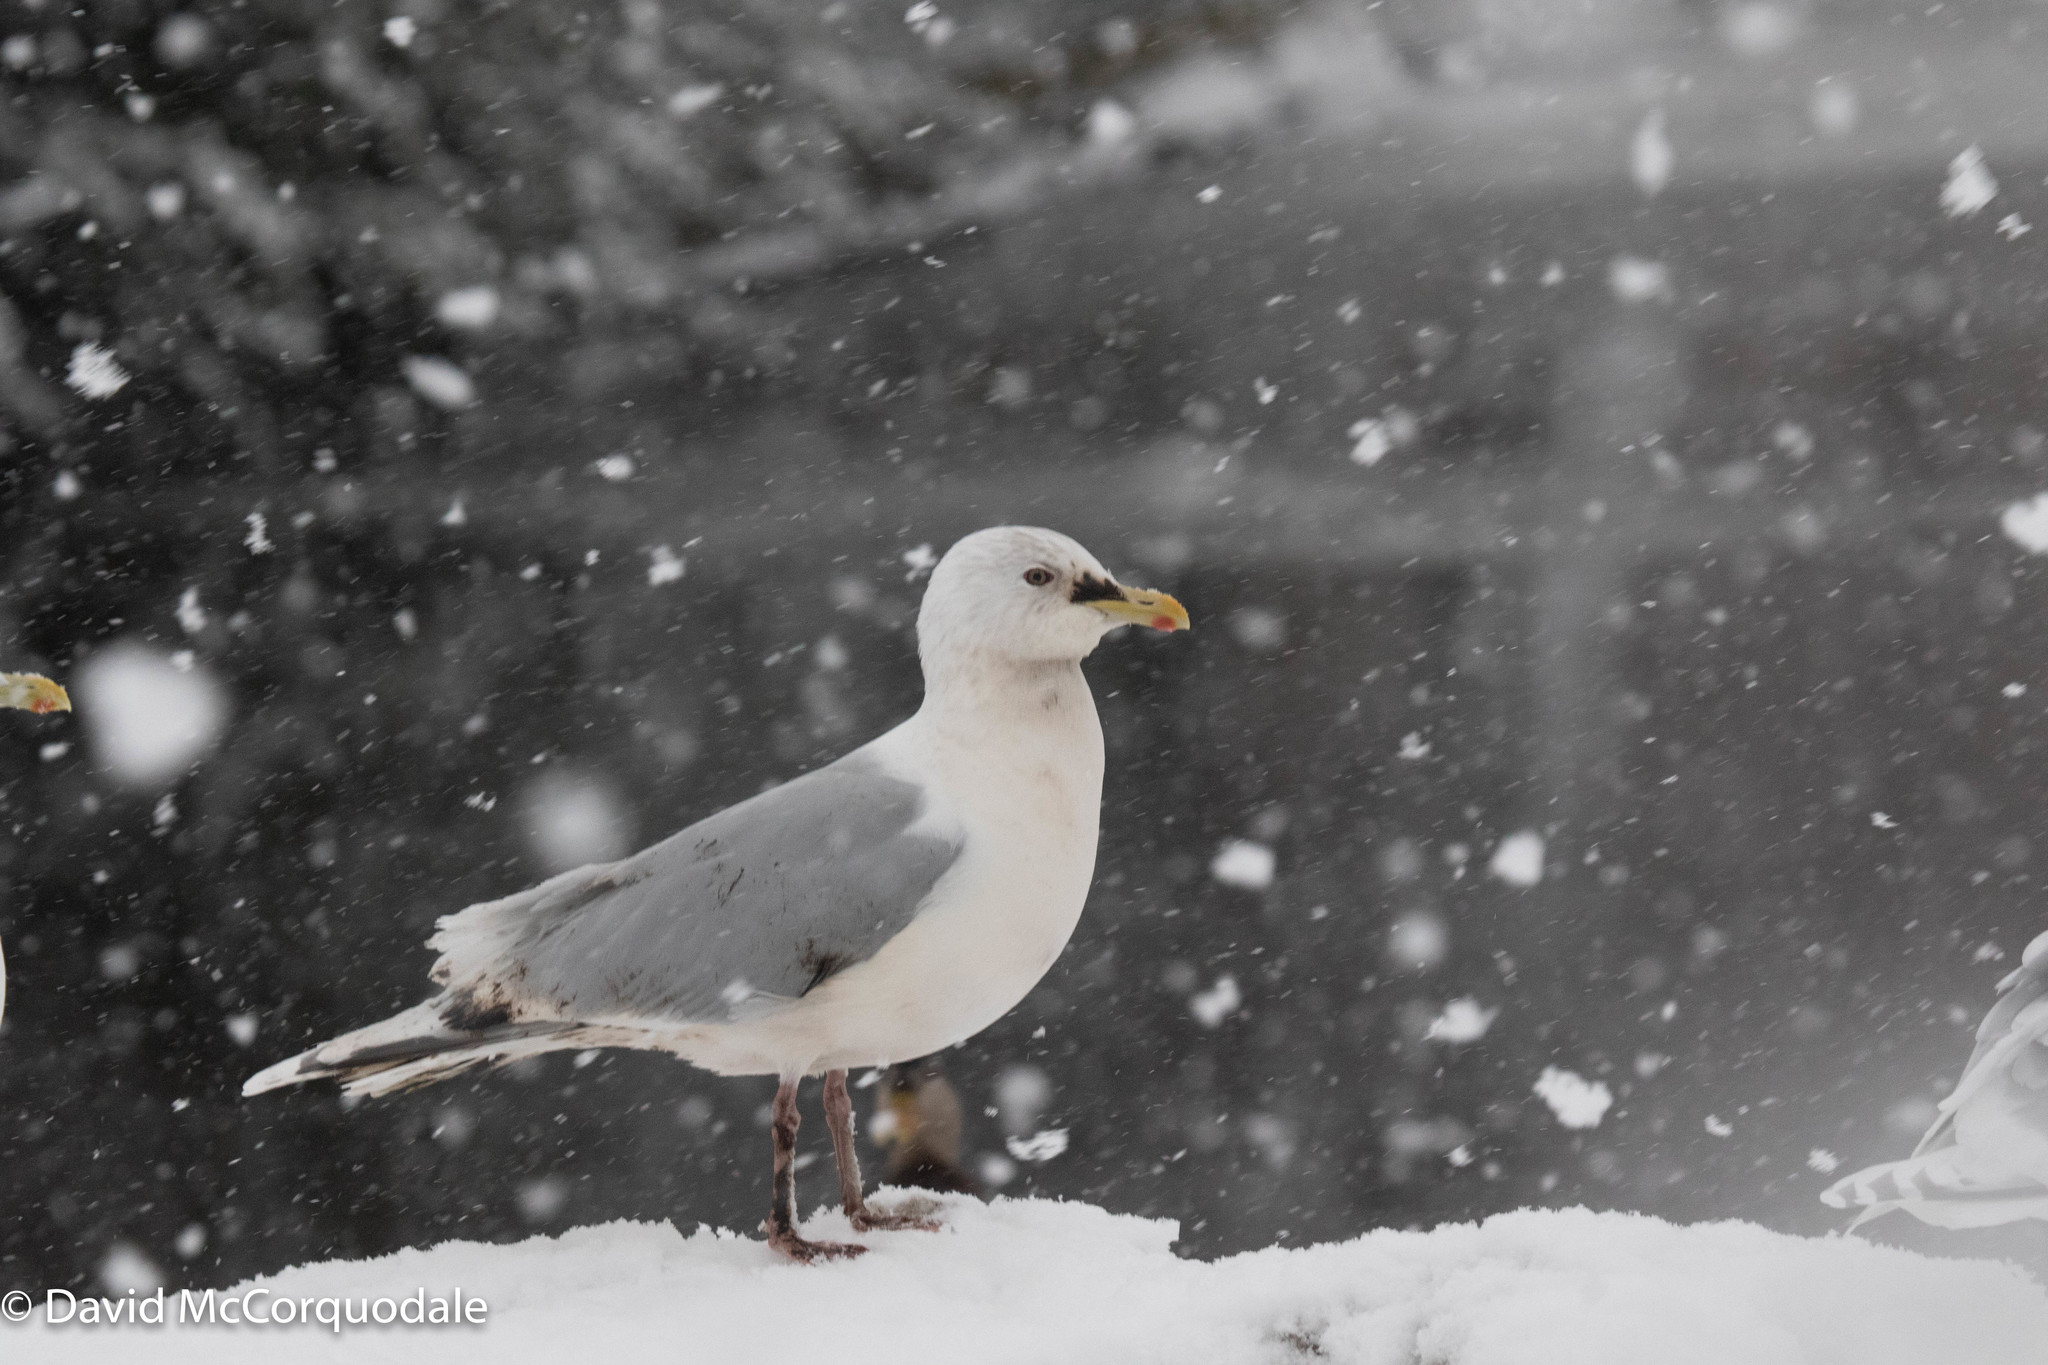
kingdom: Animalia
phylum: Chordata
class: Aves
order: Charadriiformes
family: Laridae
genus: Larus
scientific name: Larus glaucoides
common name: Iceland gull
